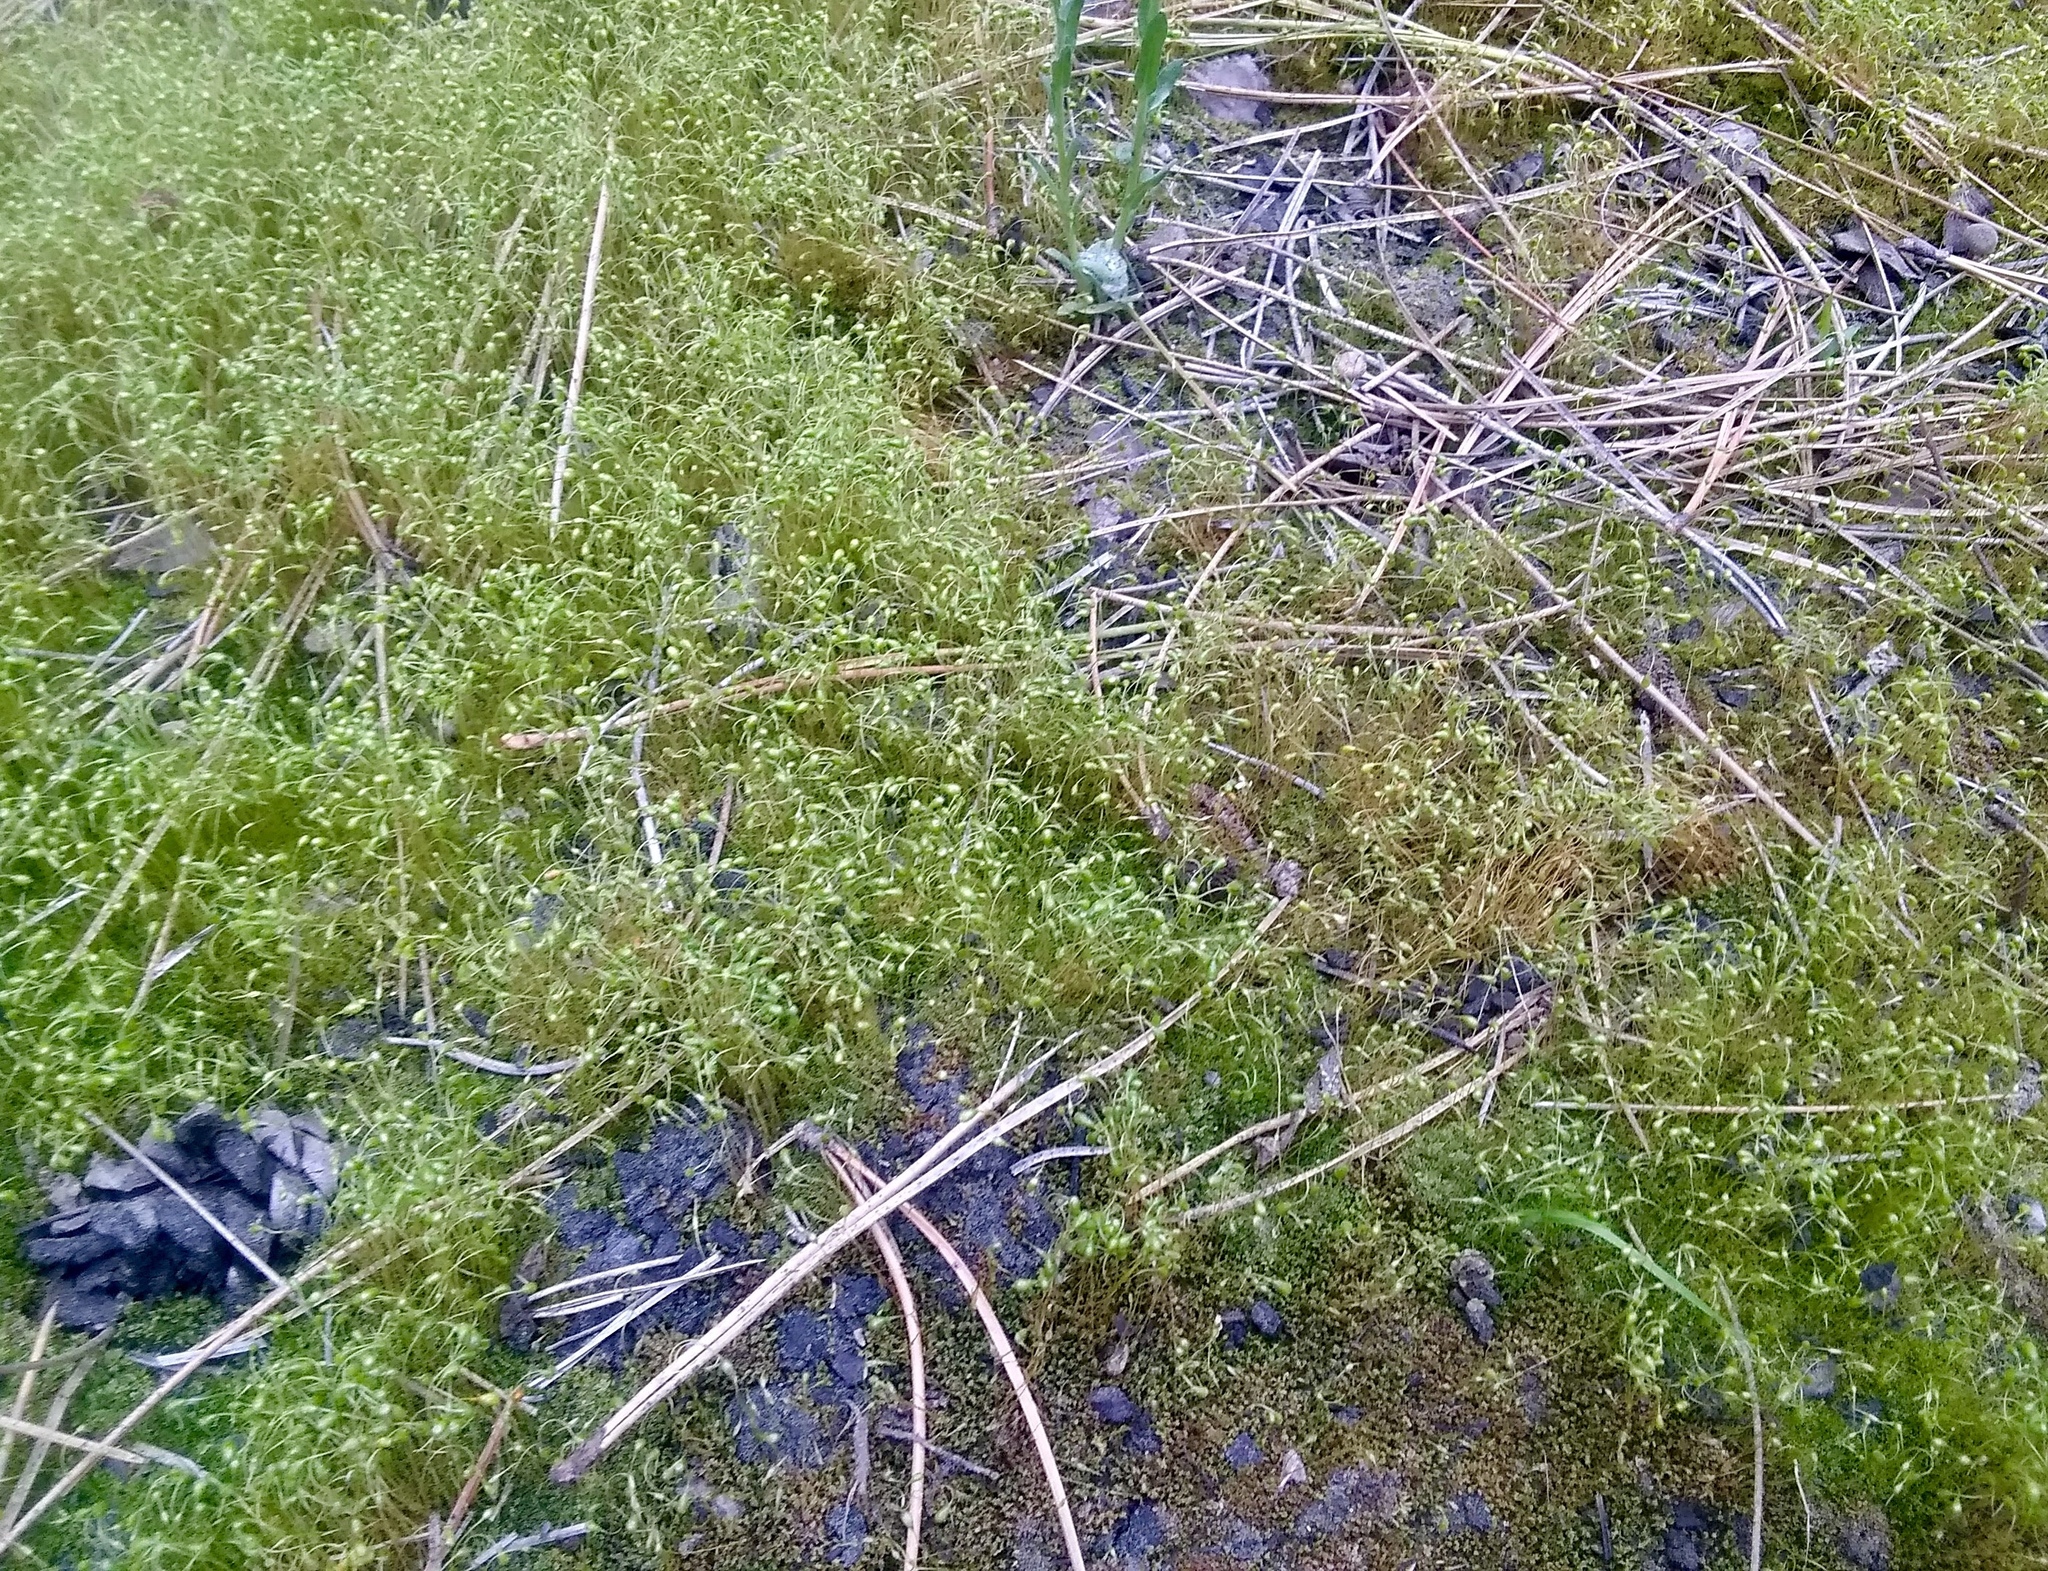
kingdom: Plantae
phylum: Bryophyta
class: Bryopsida
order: Funariales
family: Funariaceae
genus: Funaria
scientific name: Funaria hygrometrica
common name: Common cord moss
